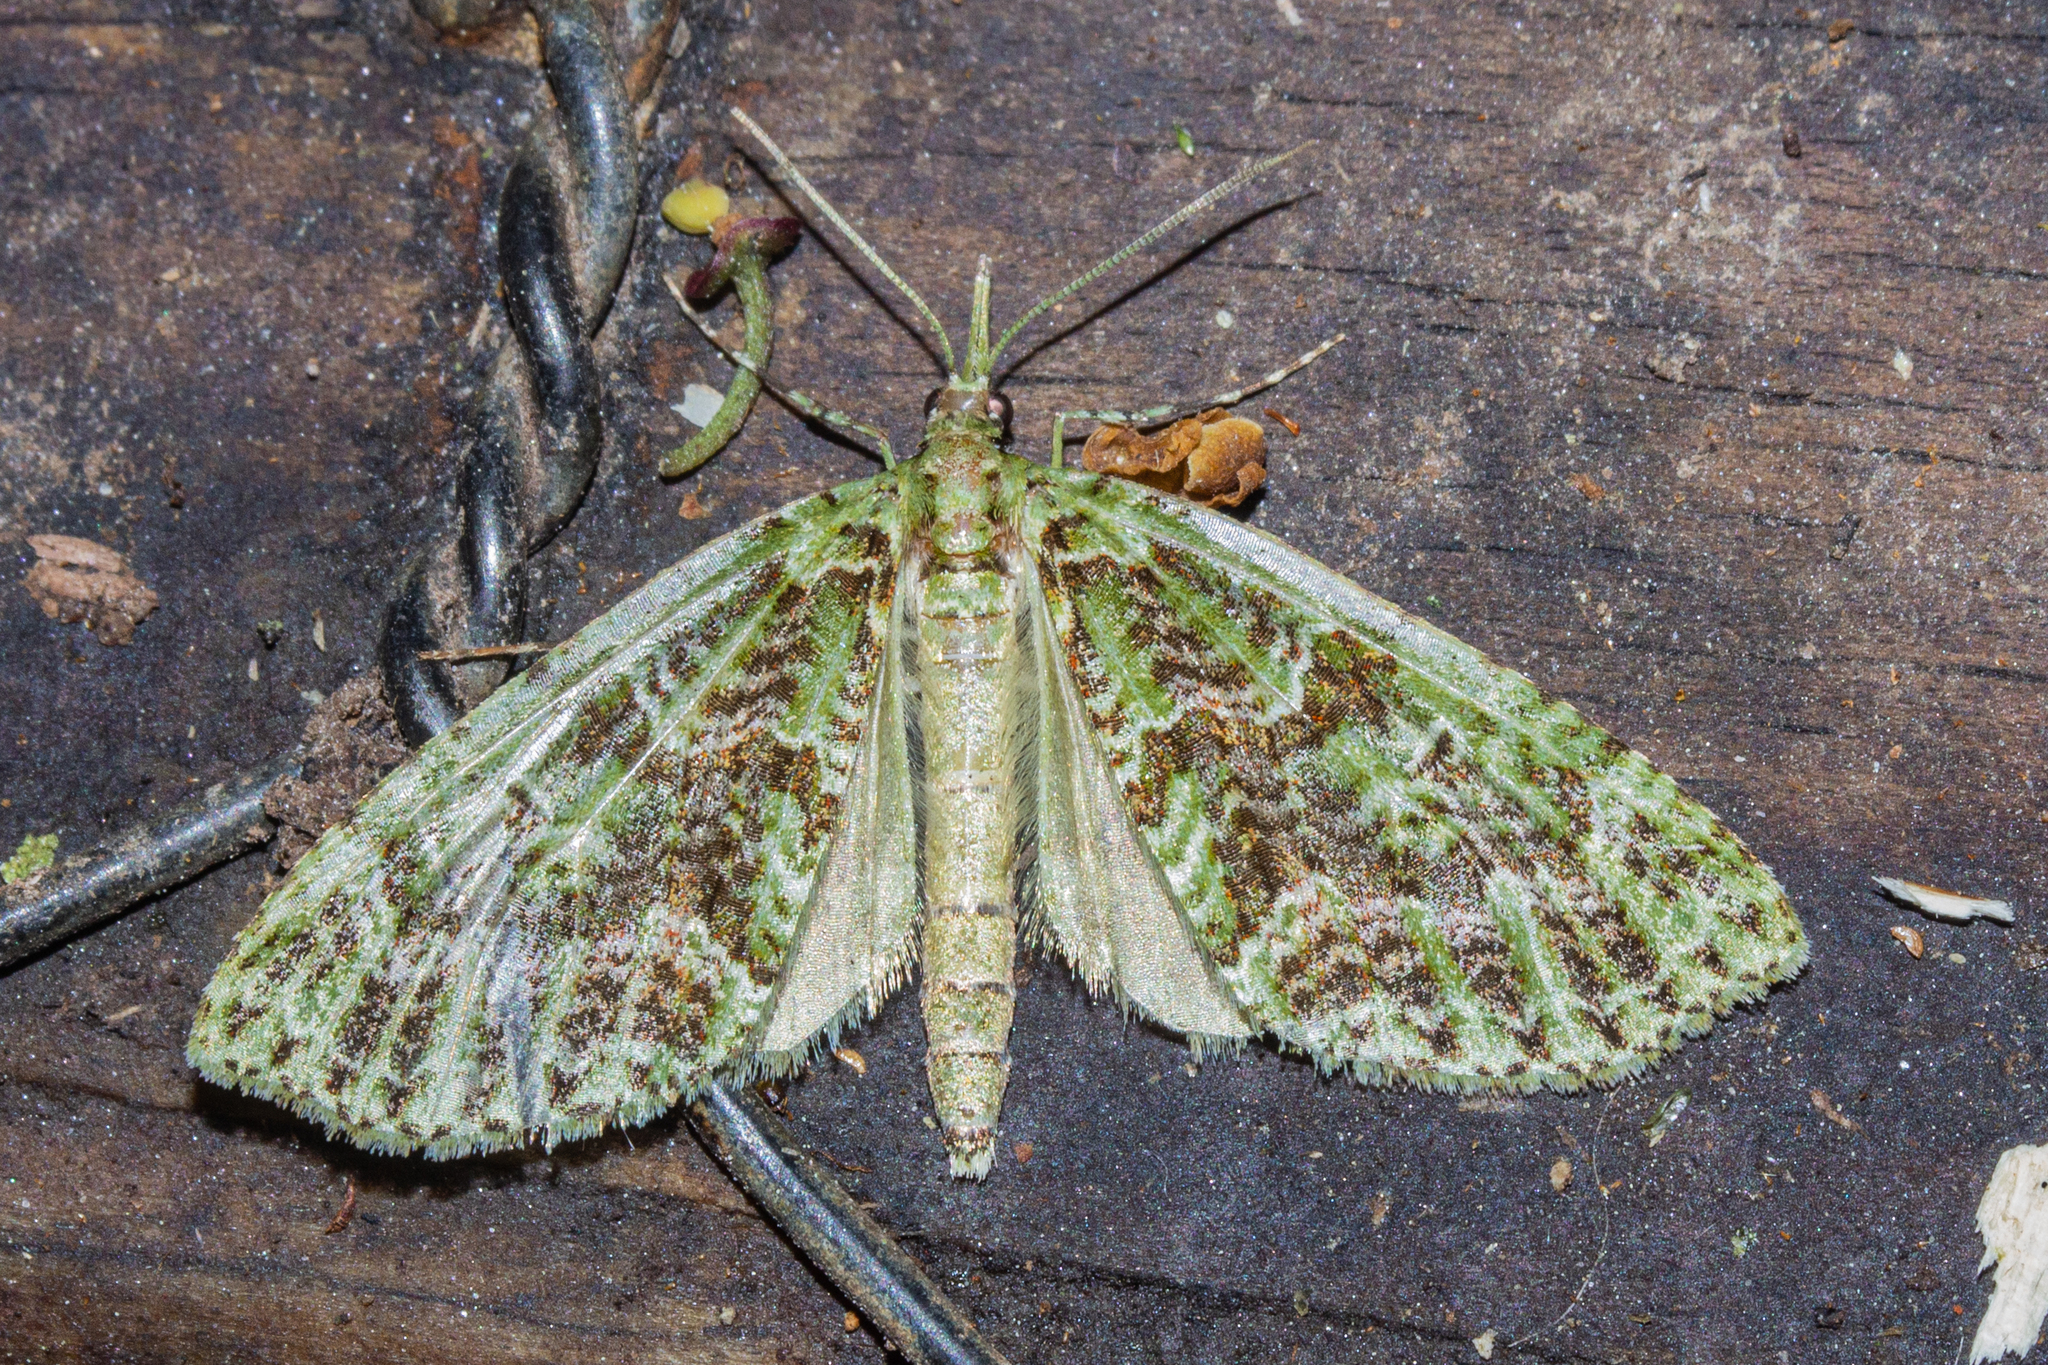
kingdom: Animalia
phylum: Arthropoda
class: Insecta
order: Lepidoptera
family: Geometridae
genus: Tatosoma
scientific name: Tatosoma tipulata
